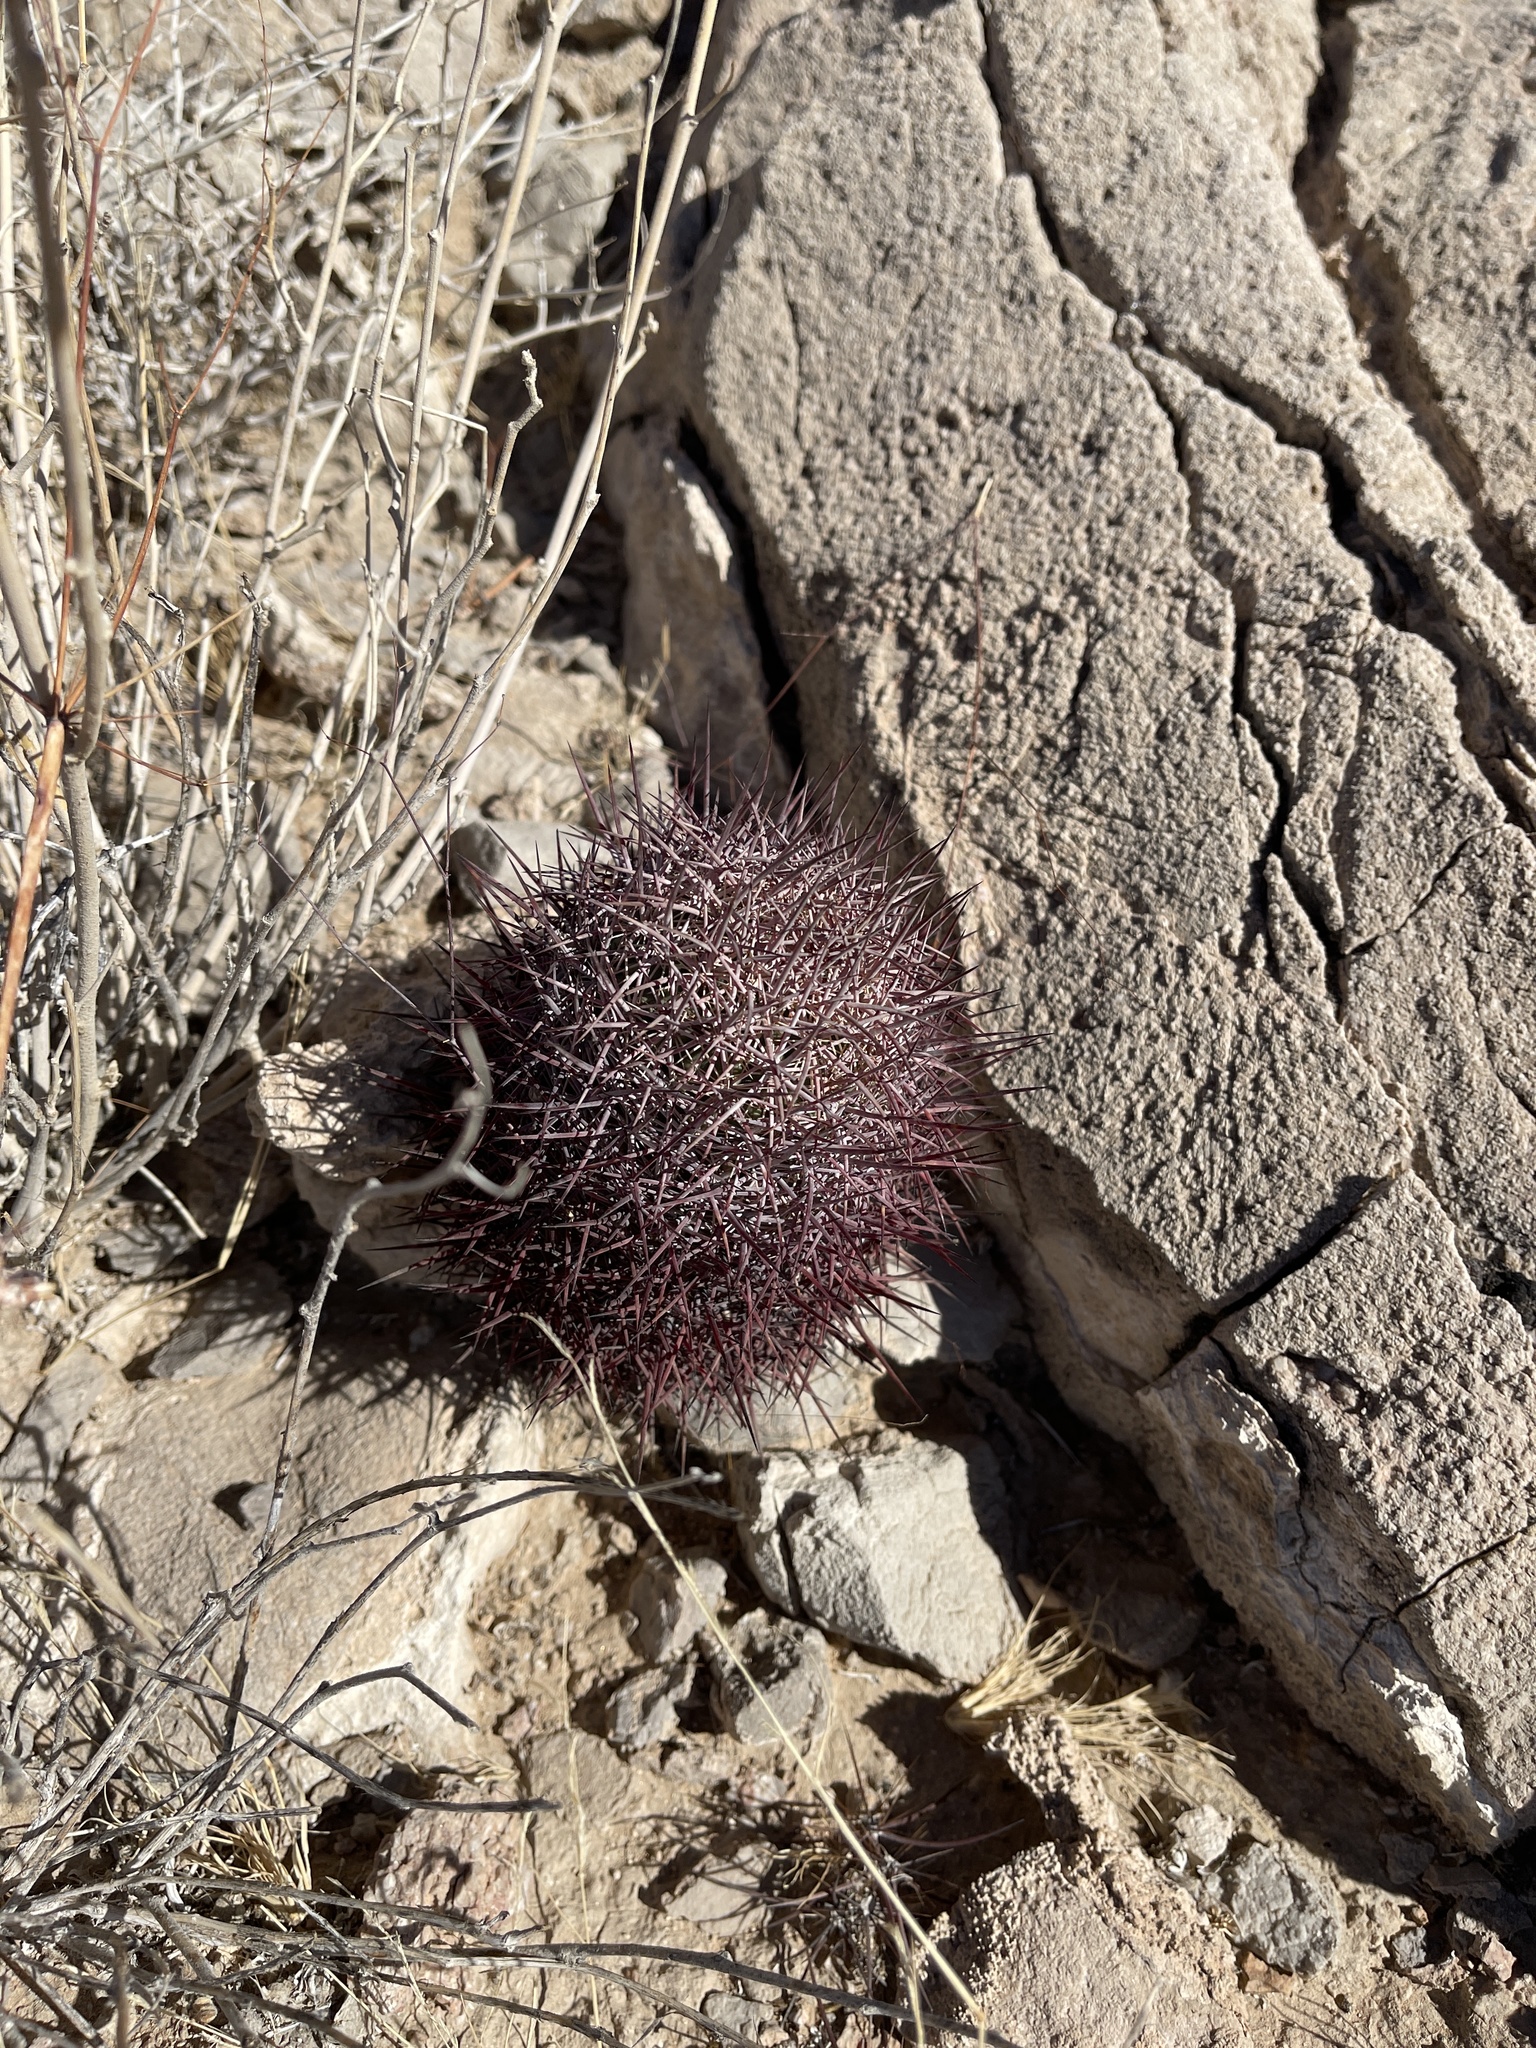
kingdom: Plantae
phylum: Tracheophyta
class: Magnoliopsida
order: Caryophyllales
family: Cactaceae
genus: Sclerocactus
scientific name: Sclerocactus johnsonii
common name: Eight-spine fishhook cactus
